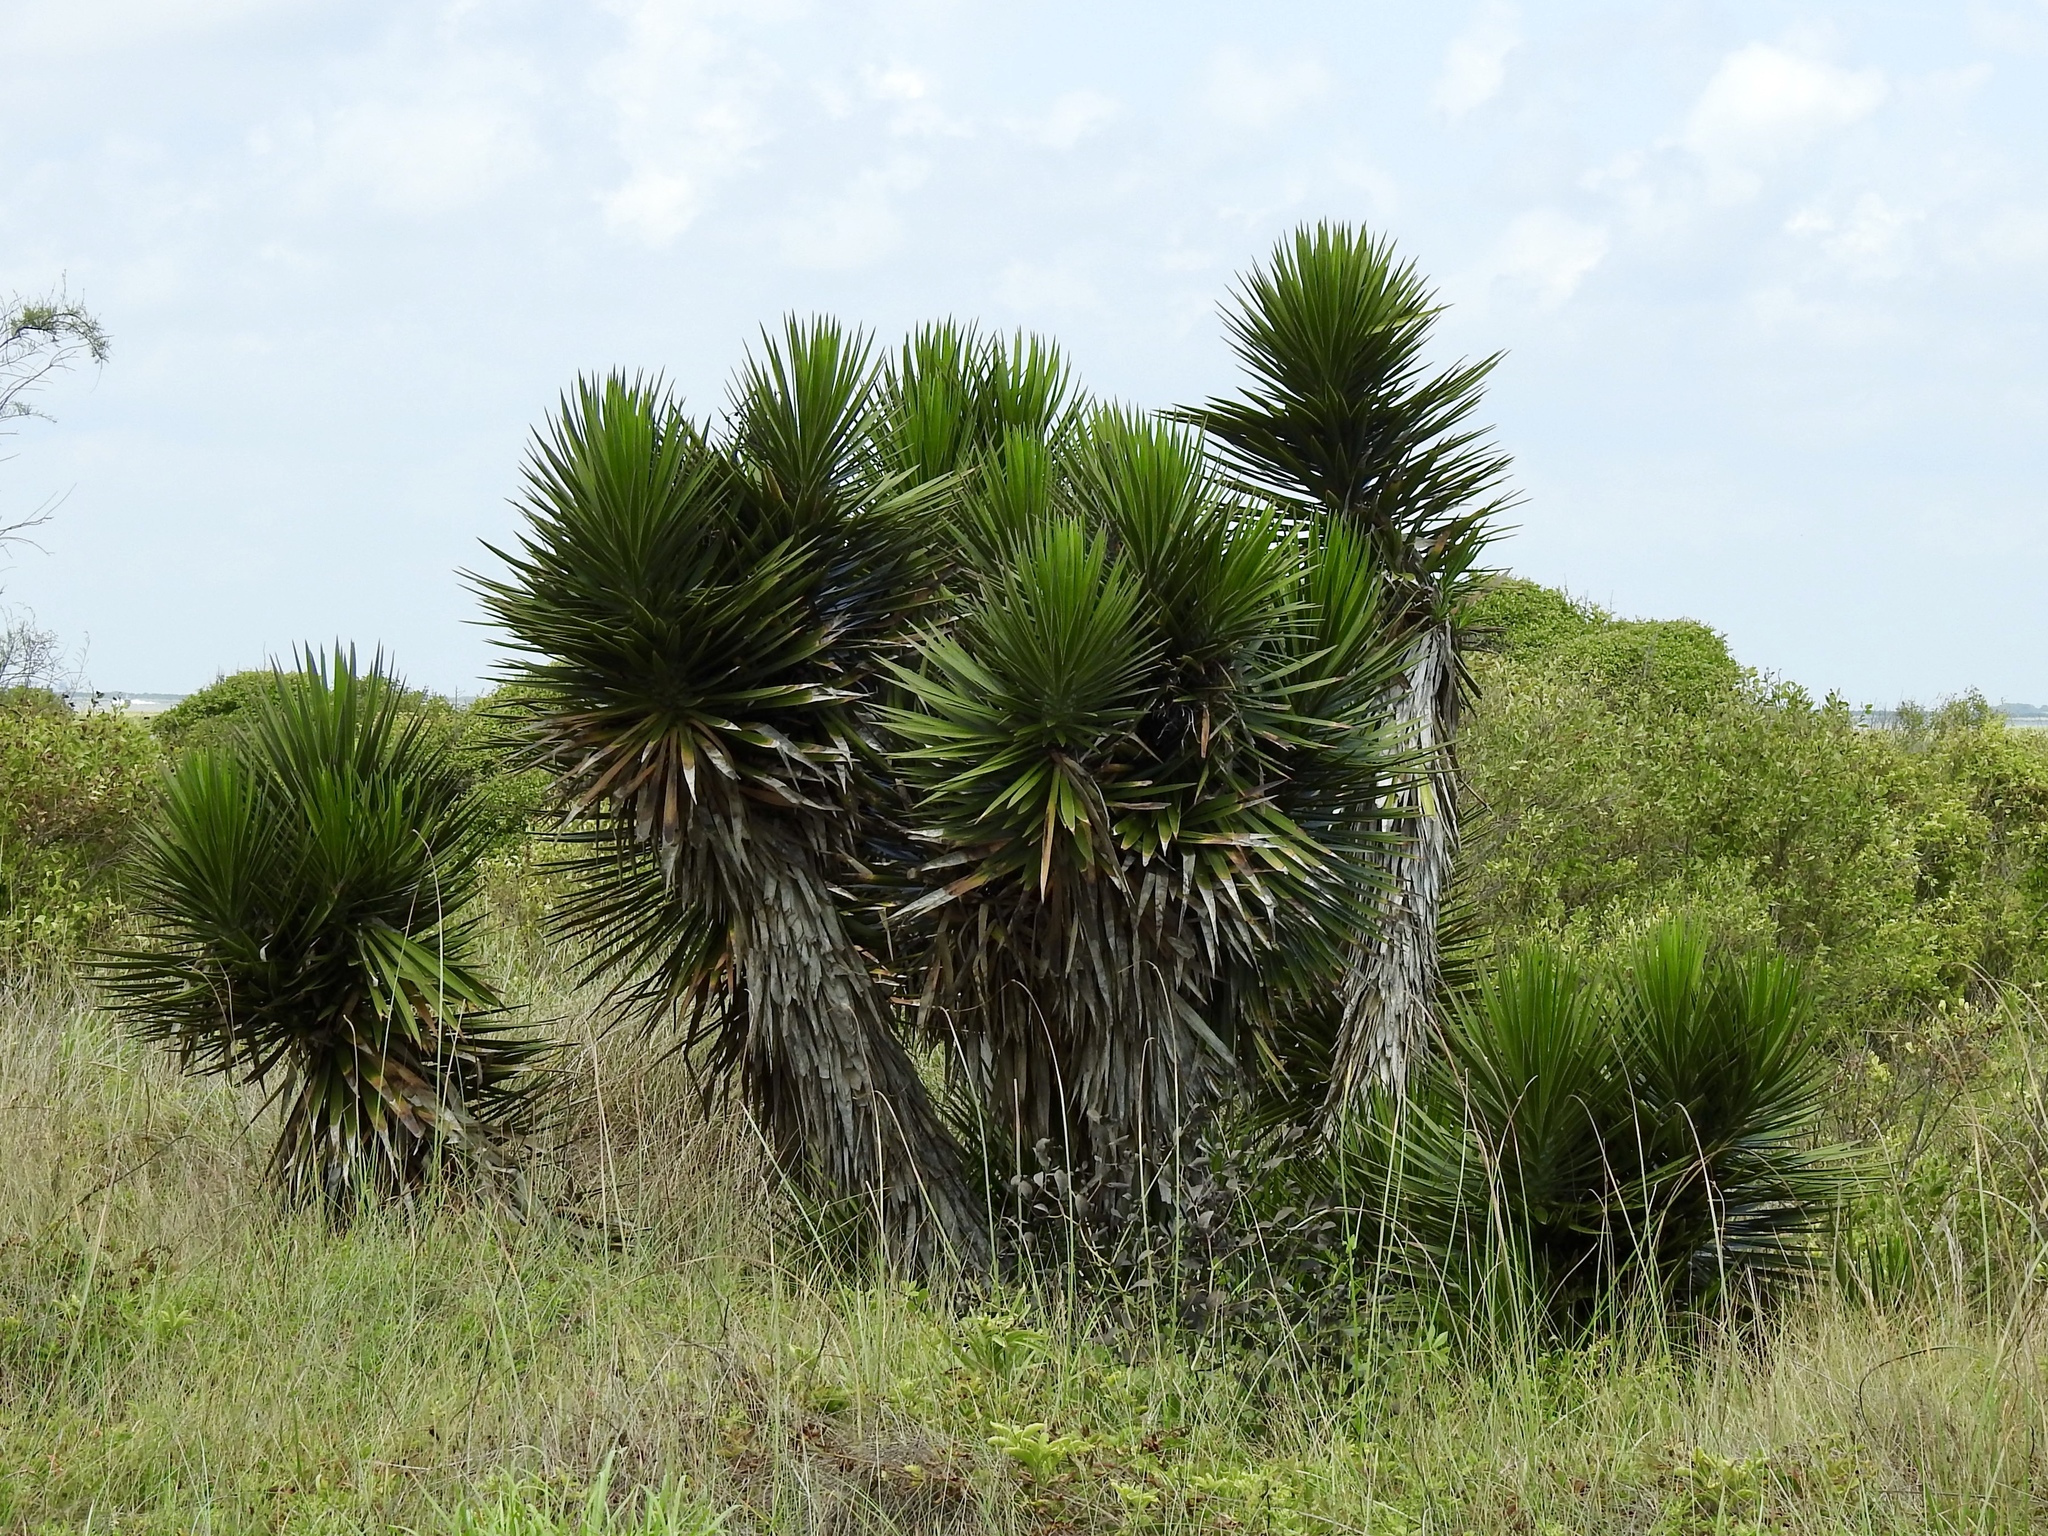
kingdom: Plantae
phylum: Tracheophyta
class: Liliopsida
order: Asparagales
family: Asparagaceae
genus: Yucca
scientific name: Yucca aloifolia
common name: Aloe yucca
